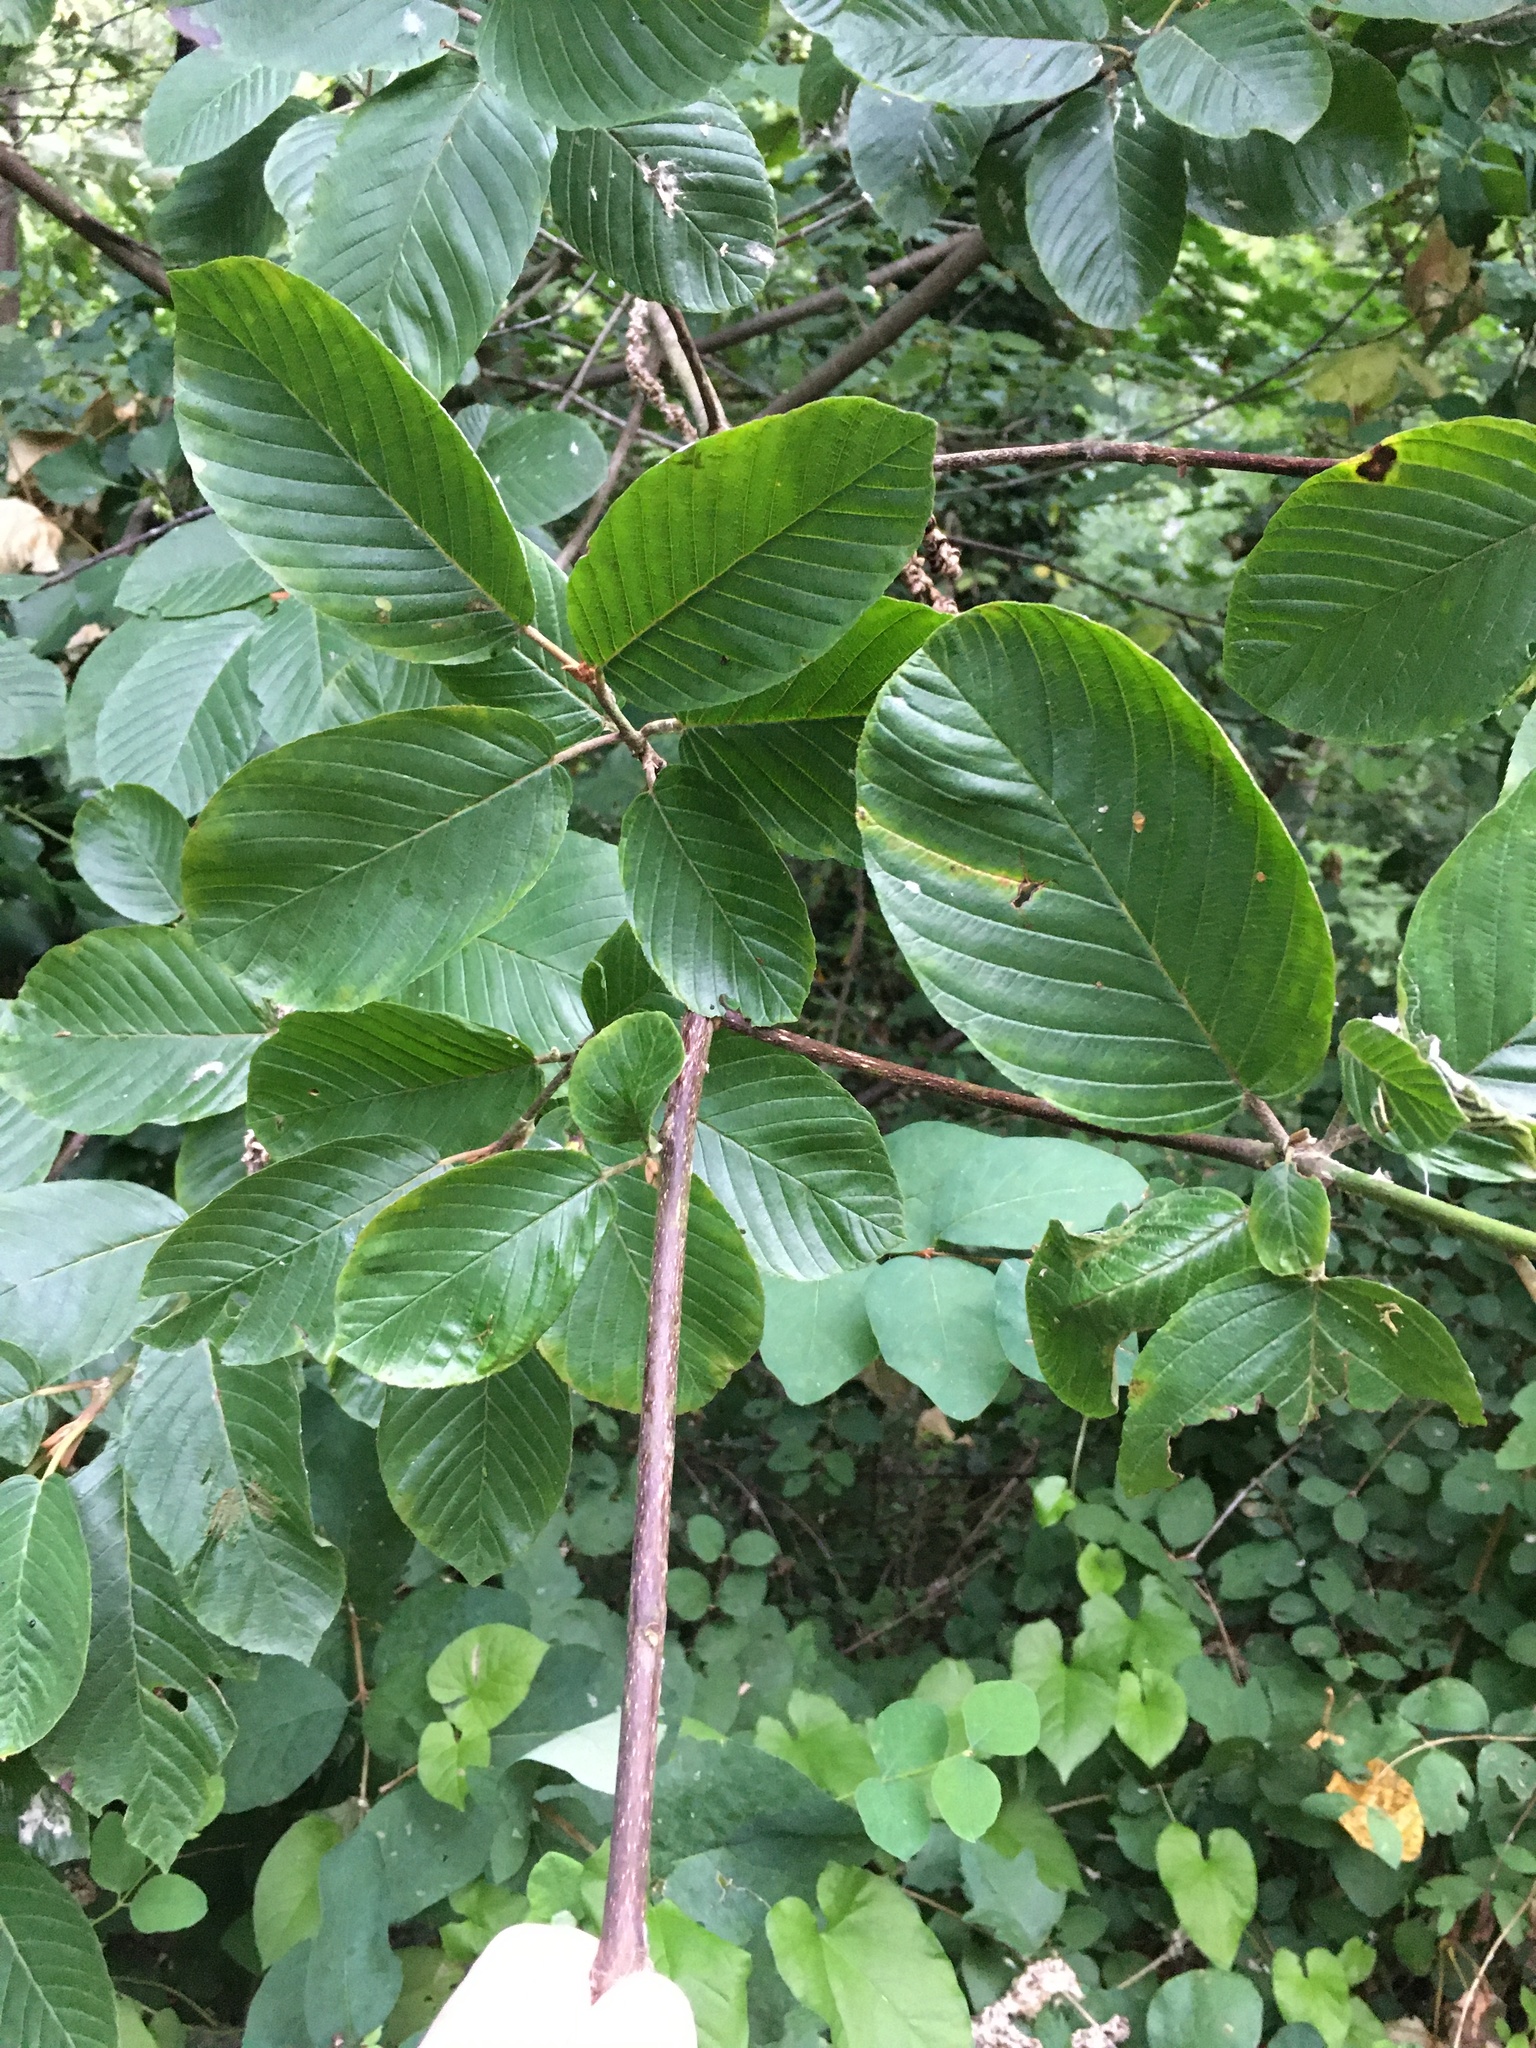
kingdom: Plantae
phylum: Tracheophyta
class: Magnoliopsida
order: Rosales
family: Rhamnaceae
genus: Frangula
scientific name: Frangula purshiana
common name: Cascara buckthorn
